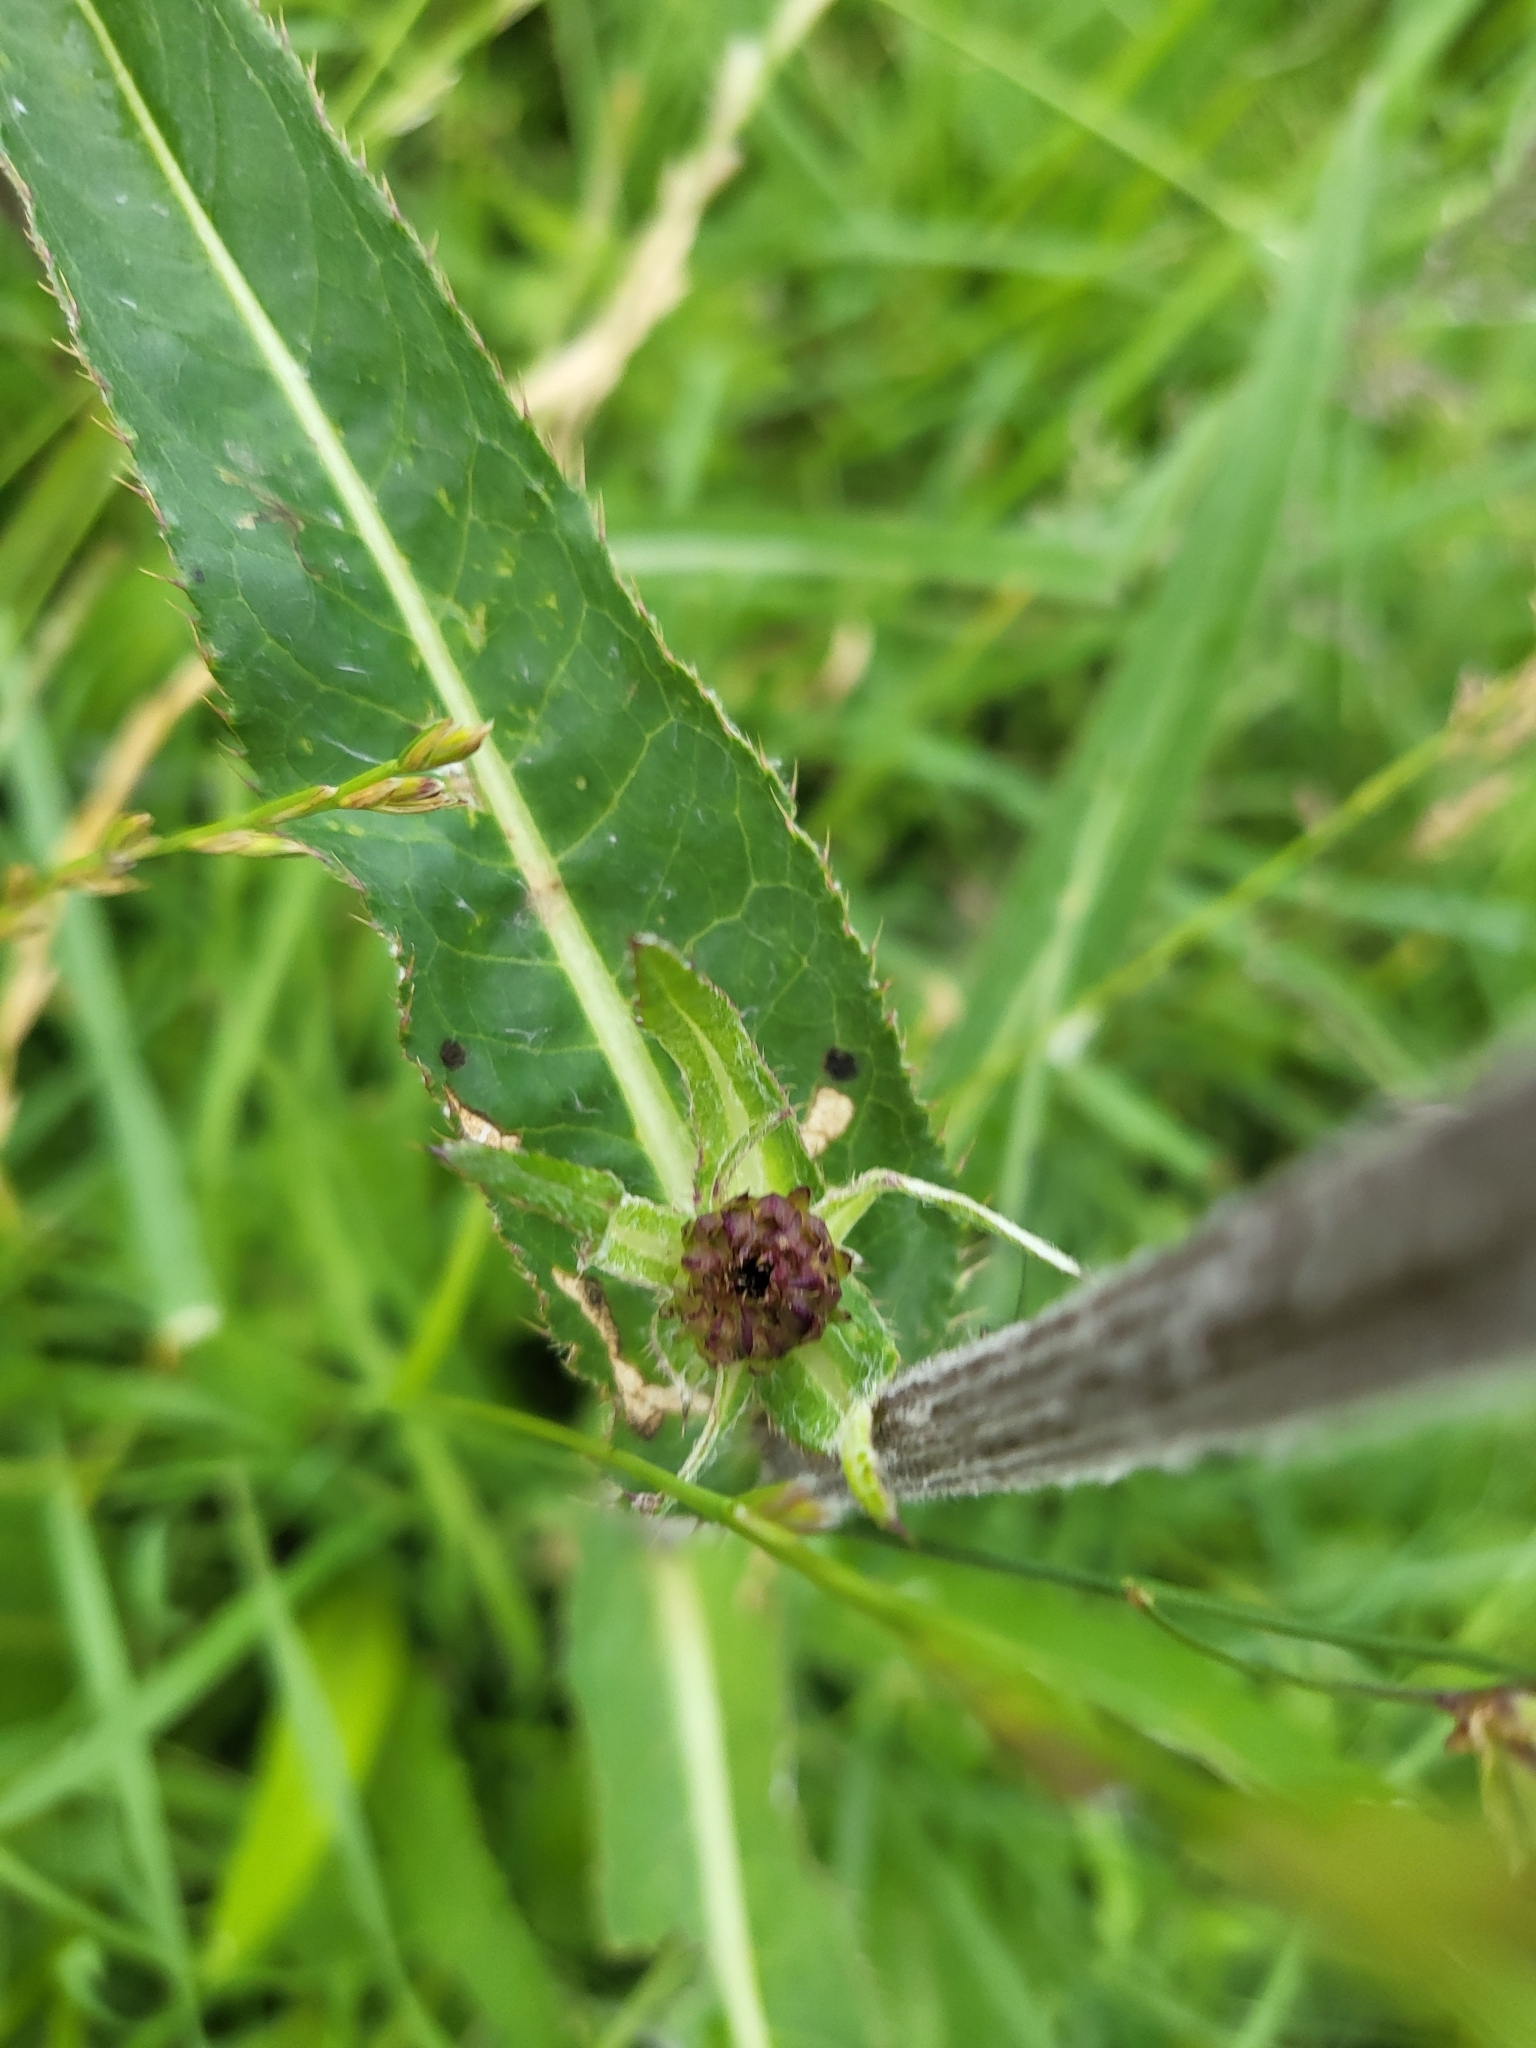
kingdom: Plantae
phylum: Tracheophyta
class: Magnoliopsida
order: Asterales
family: Asteraceae
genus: Cirsium
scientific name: Cirsium heterophyllum
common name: Melancholy thistle
